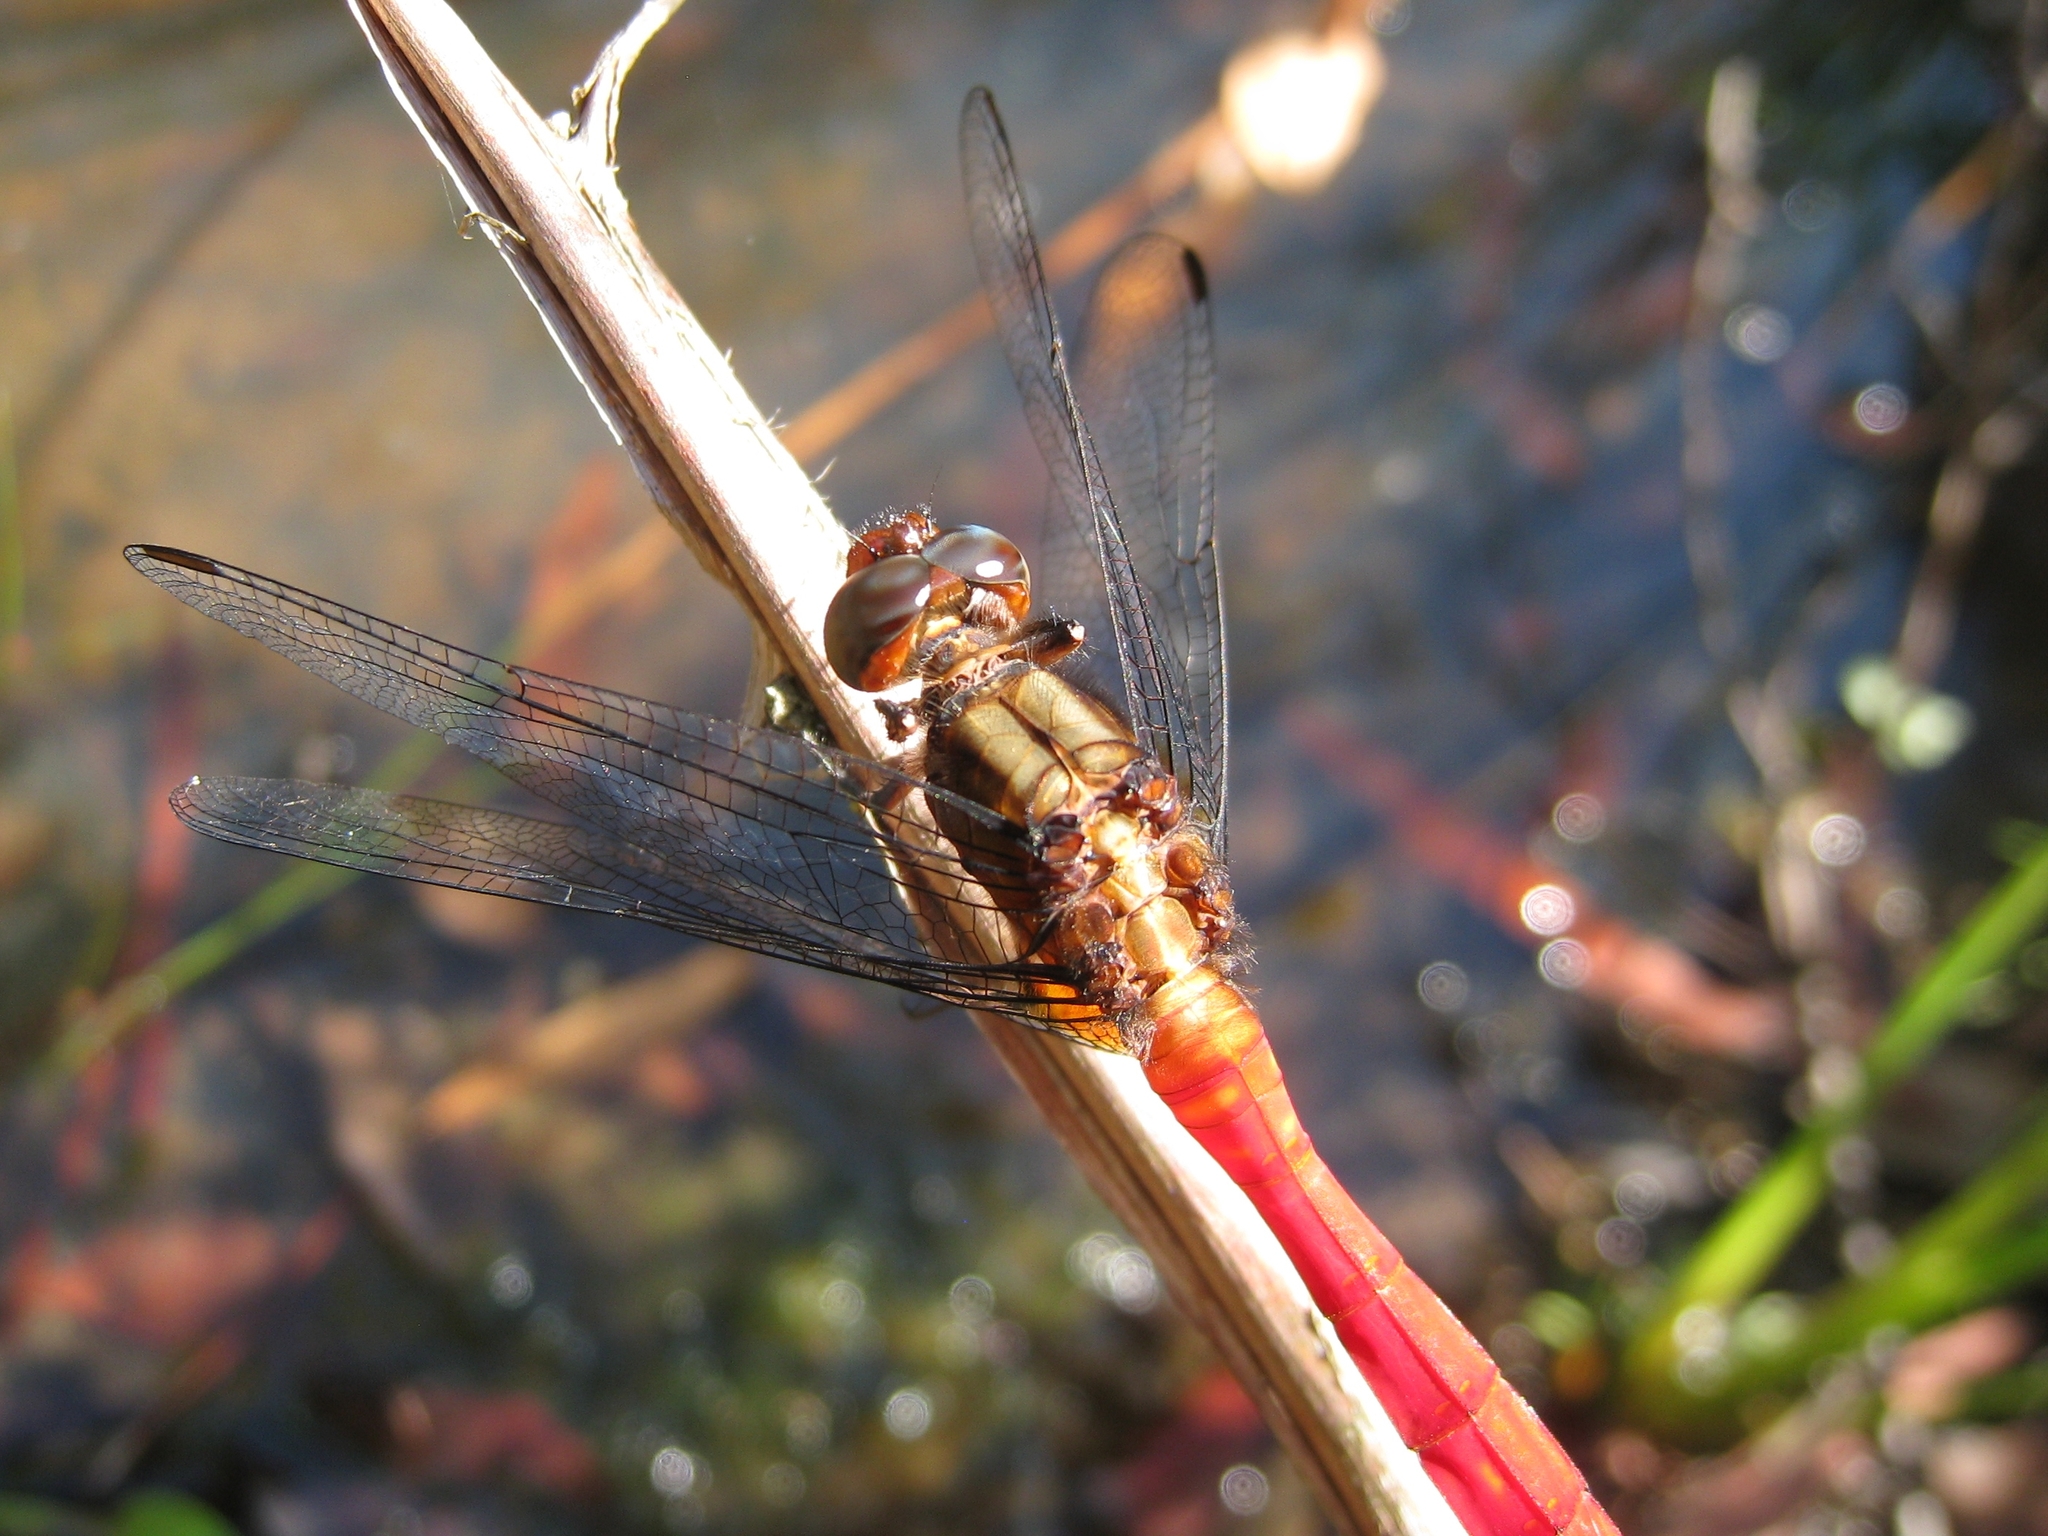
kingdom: Animalia
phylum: Arthropoda
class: Insecta
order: Odonata
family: Libellulidae
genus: Orthetrum
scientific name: Orthetrum villosovittatum
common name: Firery skimmer
